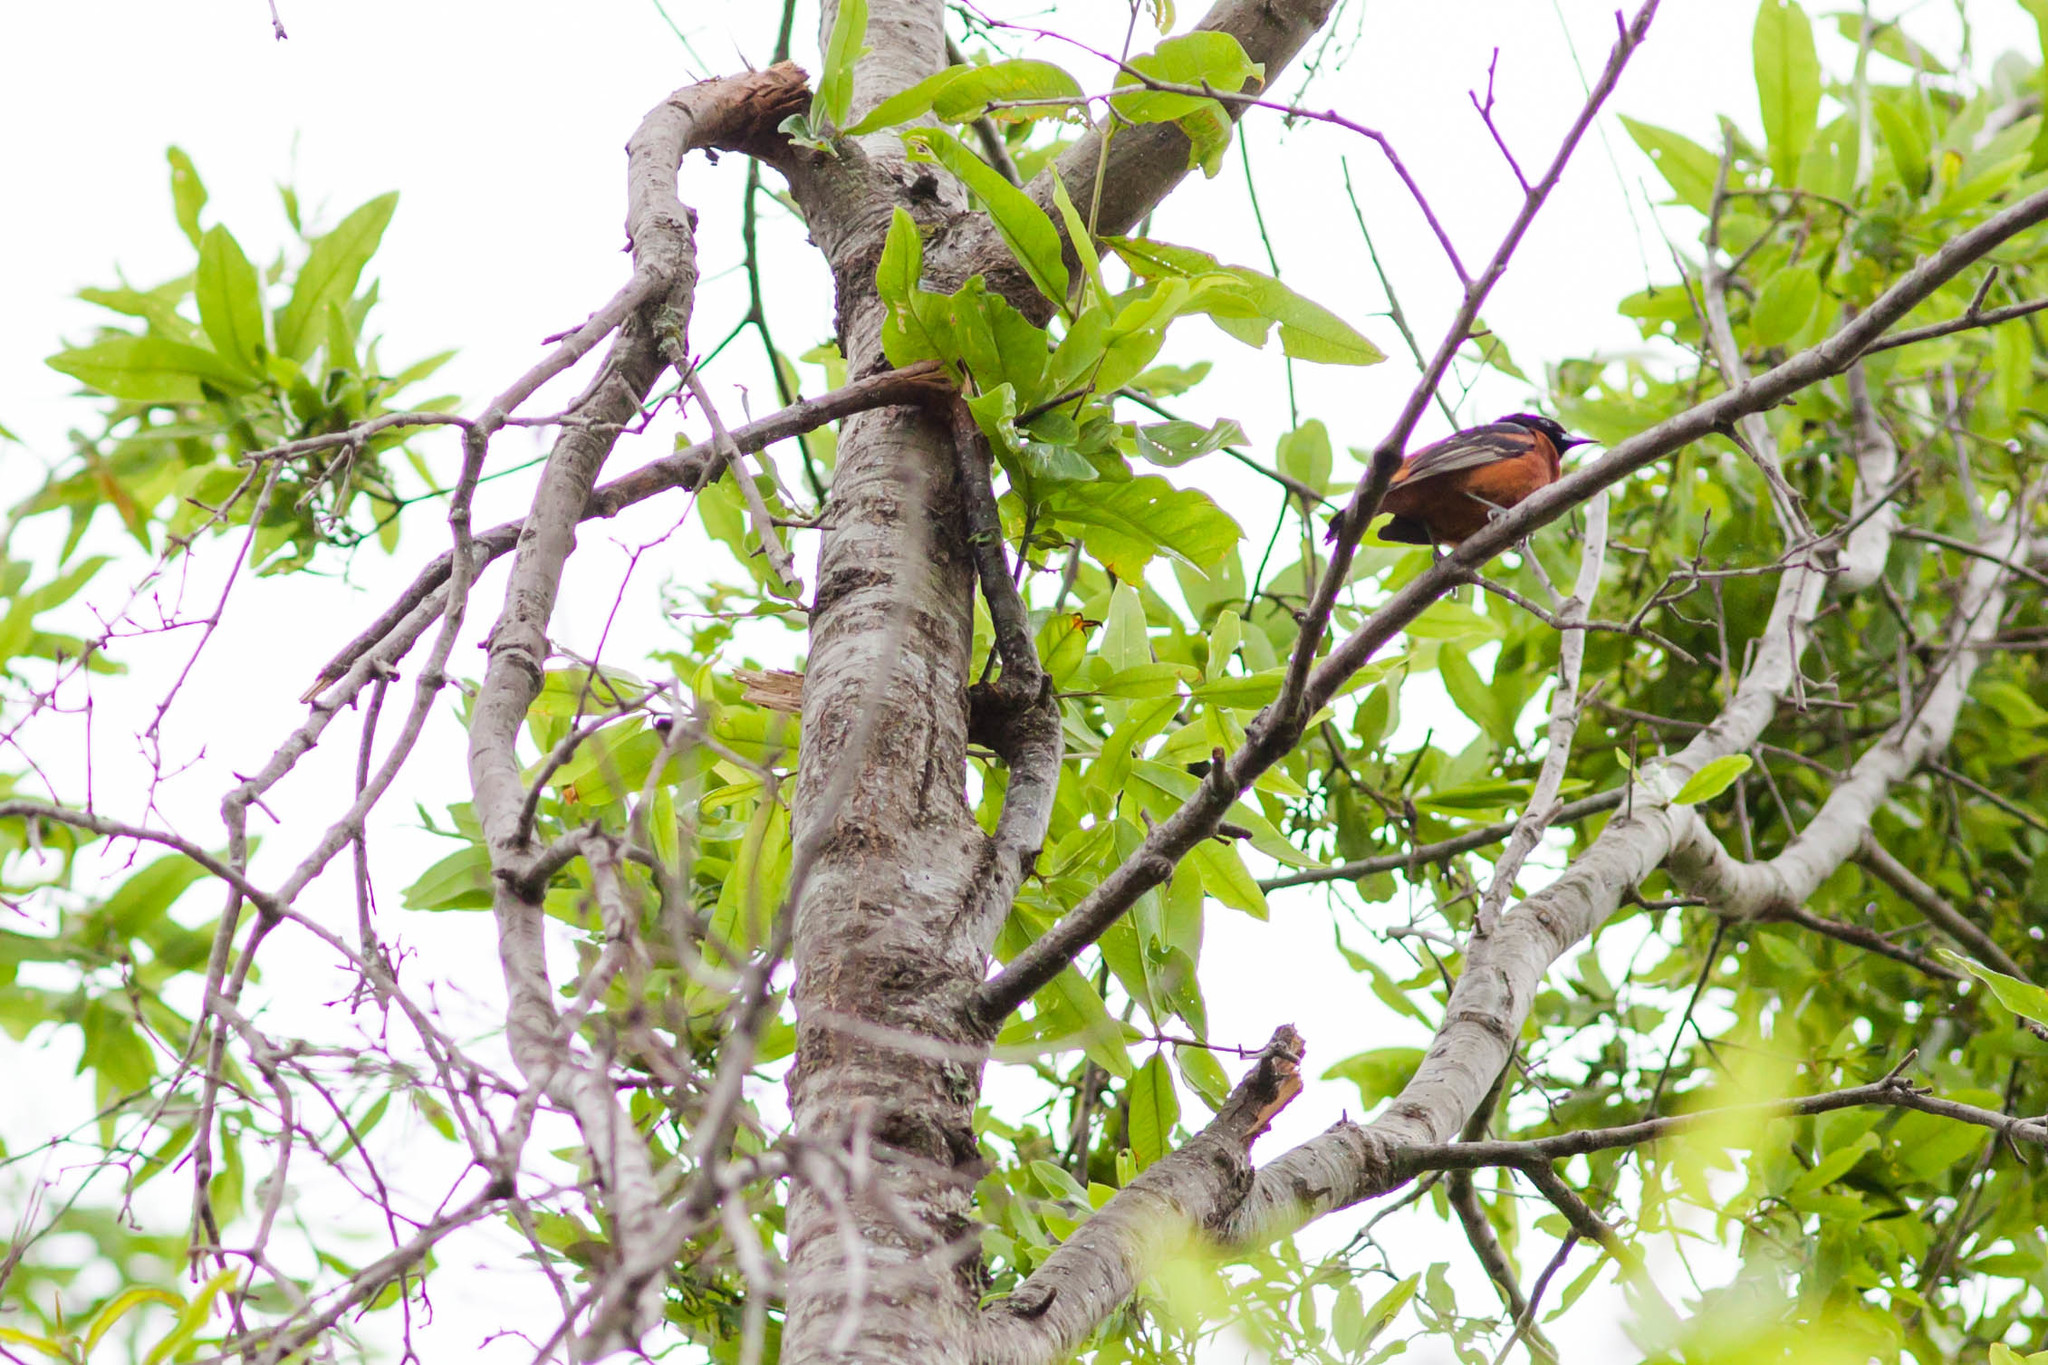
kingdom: Animalia
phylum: Chordata
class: Aves
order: Passeriformes
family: Icteridae
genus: Icterus
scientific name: Icterus spurius
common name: Orchard oriole
